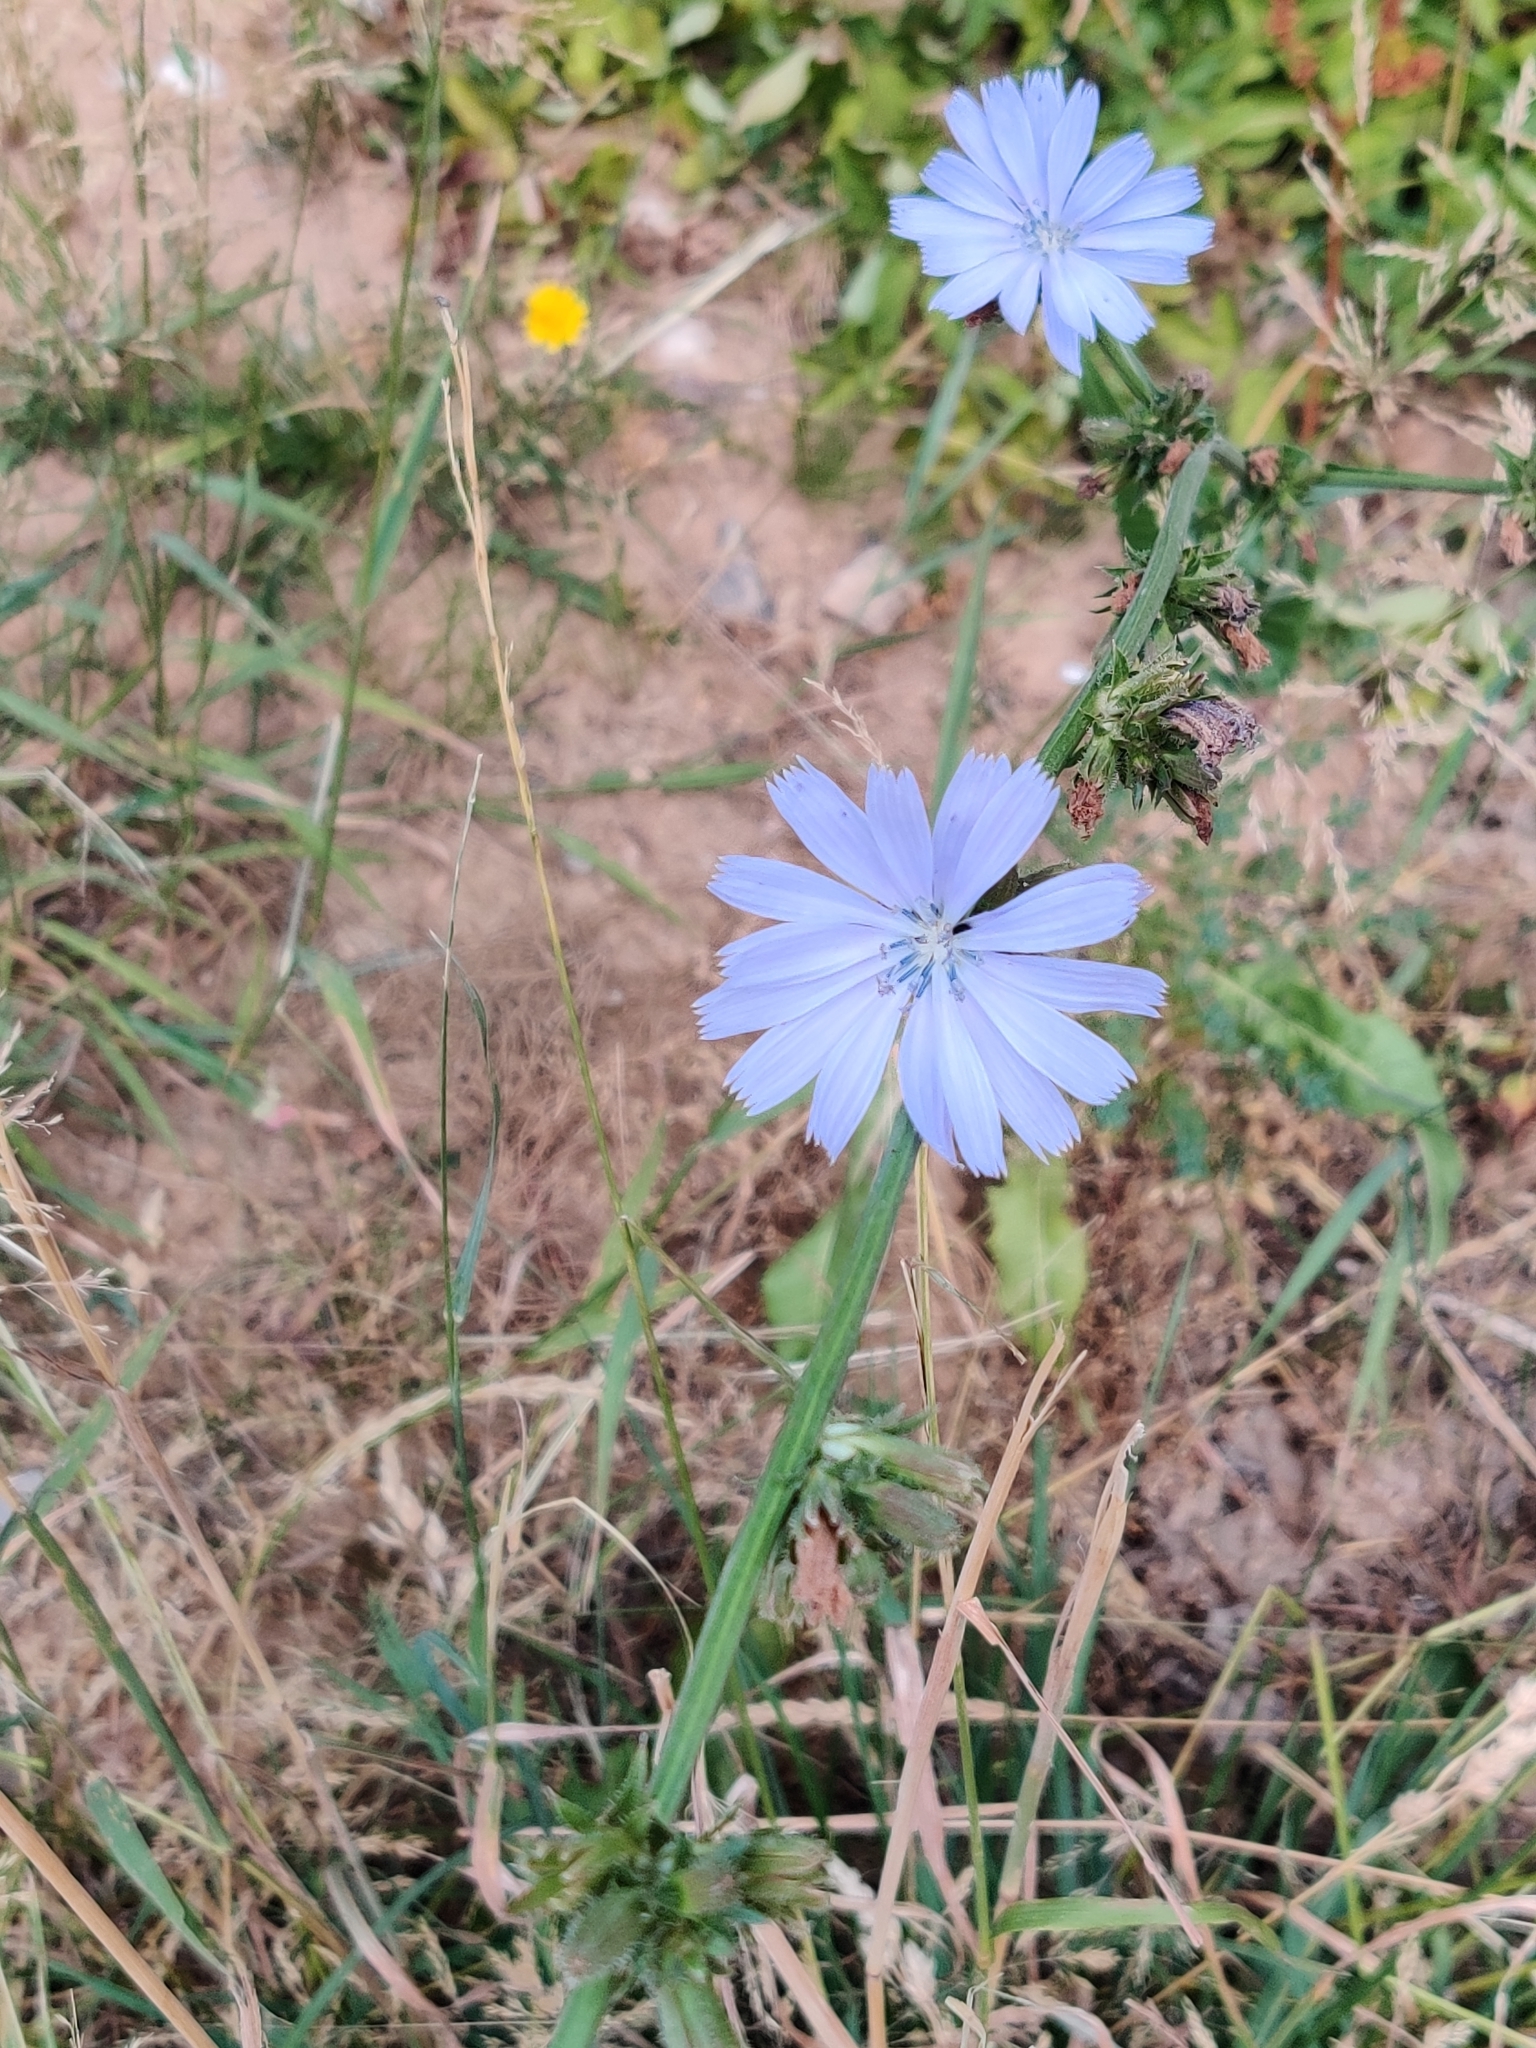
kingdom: Plantae
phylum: Tracheophyta
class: Magnoliopsida
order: Asterales
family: Asteraceae
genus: Cichorium
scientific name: Cichorium intybus
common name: Chicory
